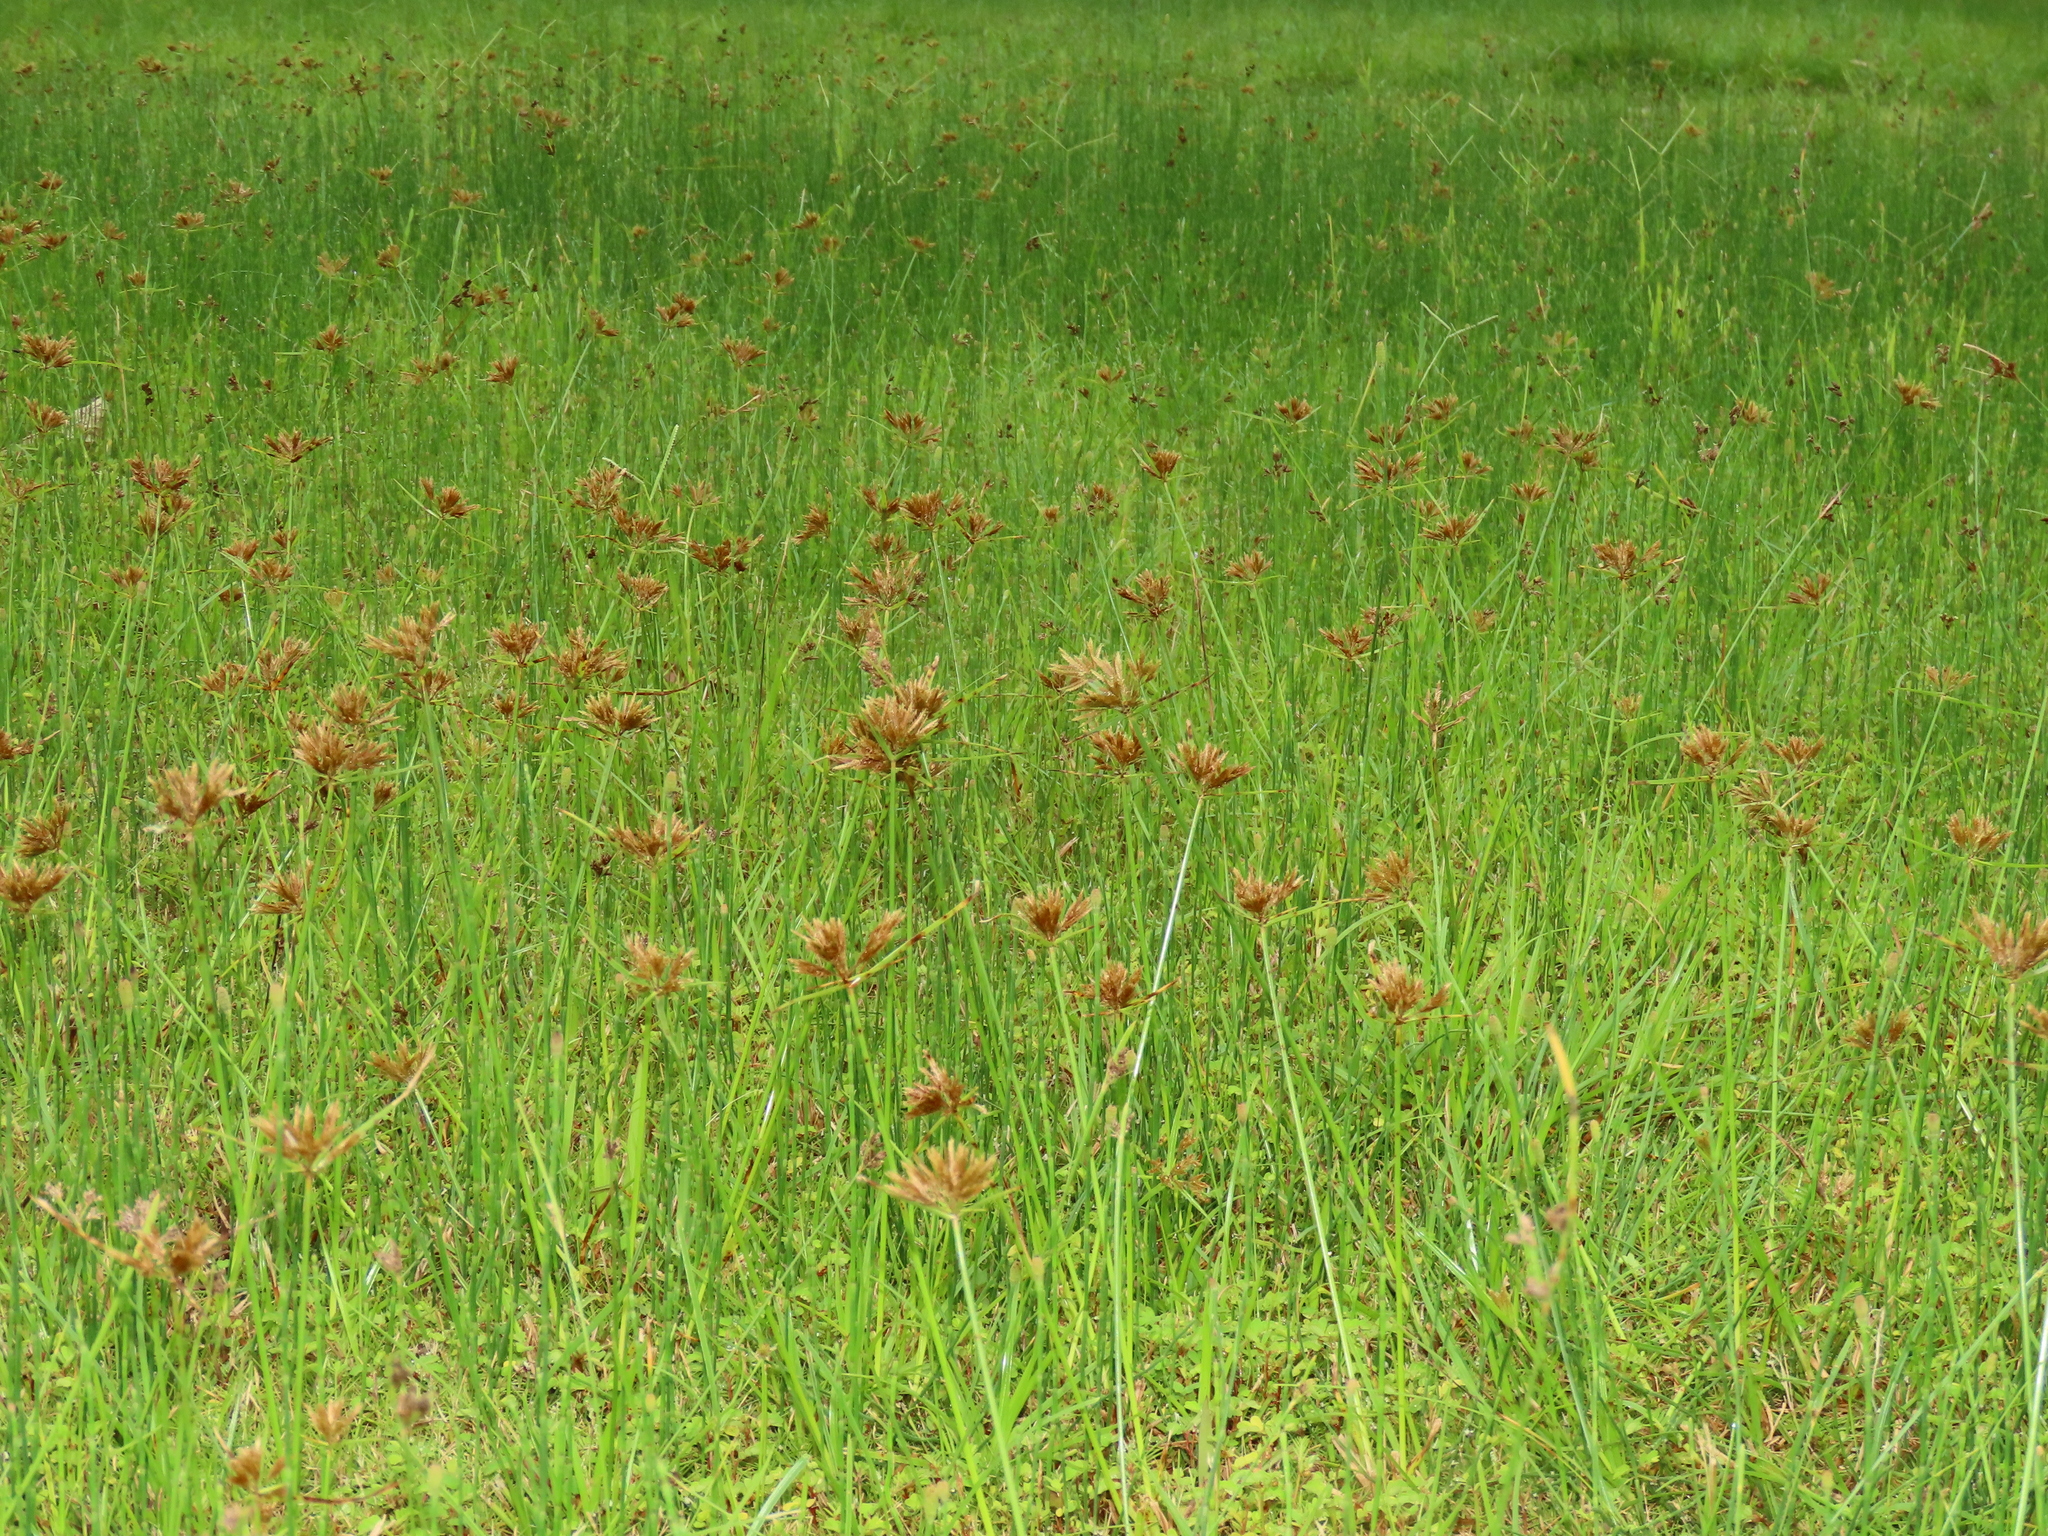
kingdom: Plantae
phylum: Tracheophyta
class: Liliopsida
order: Poales
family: Cyperaceae
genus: Cyperus
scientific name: Cyperus polystachyos
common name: Bunchy flat sedge
